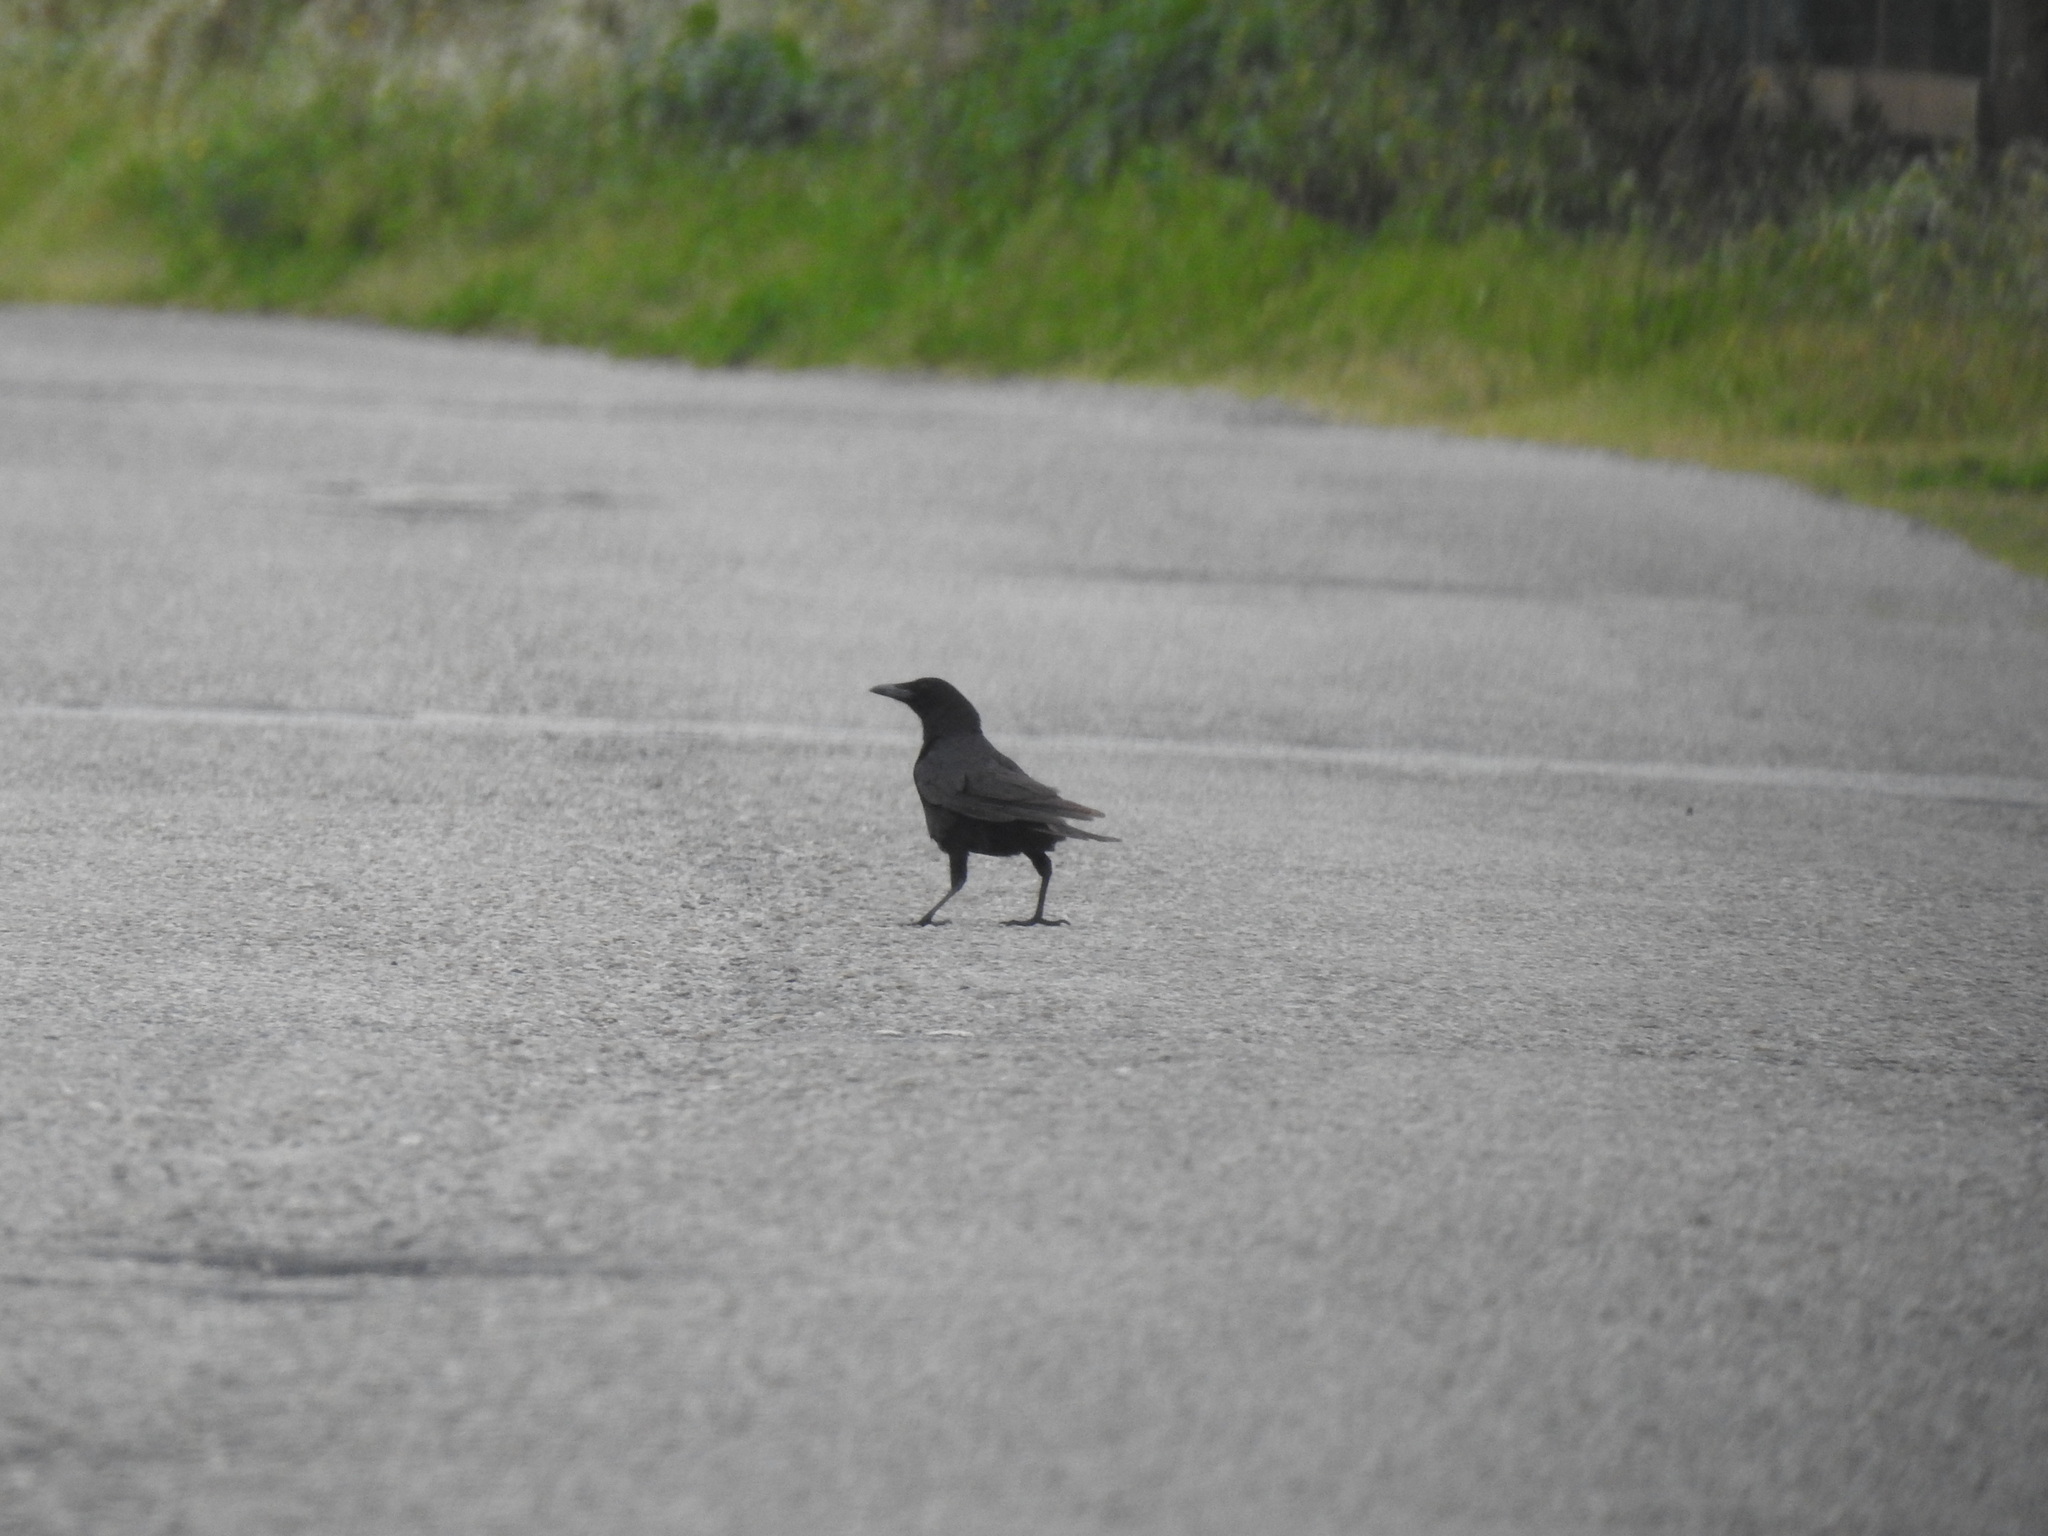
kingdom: Animalia
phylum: Chordata
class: Aves
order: Passeriformes
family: Corvidae
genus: Corvus
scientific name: Corvus corone
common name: Carrion crow
